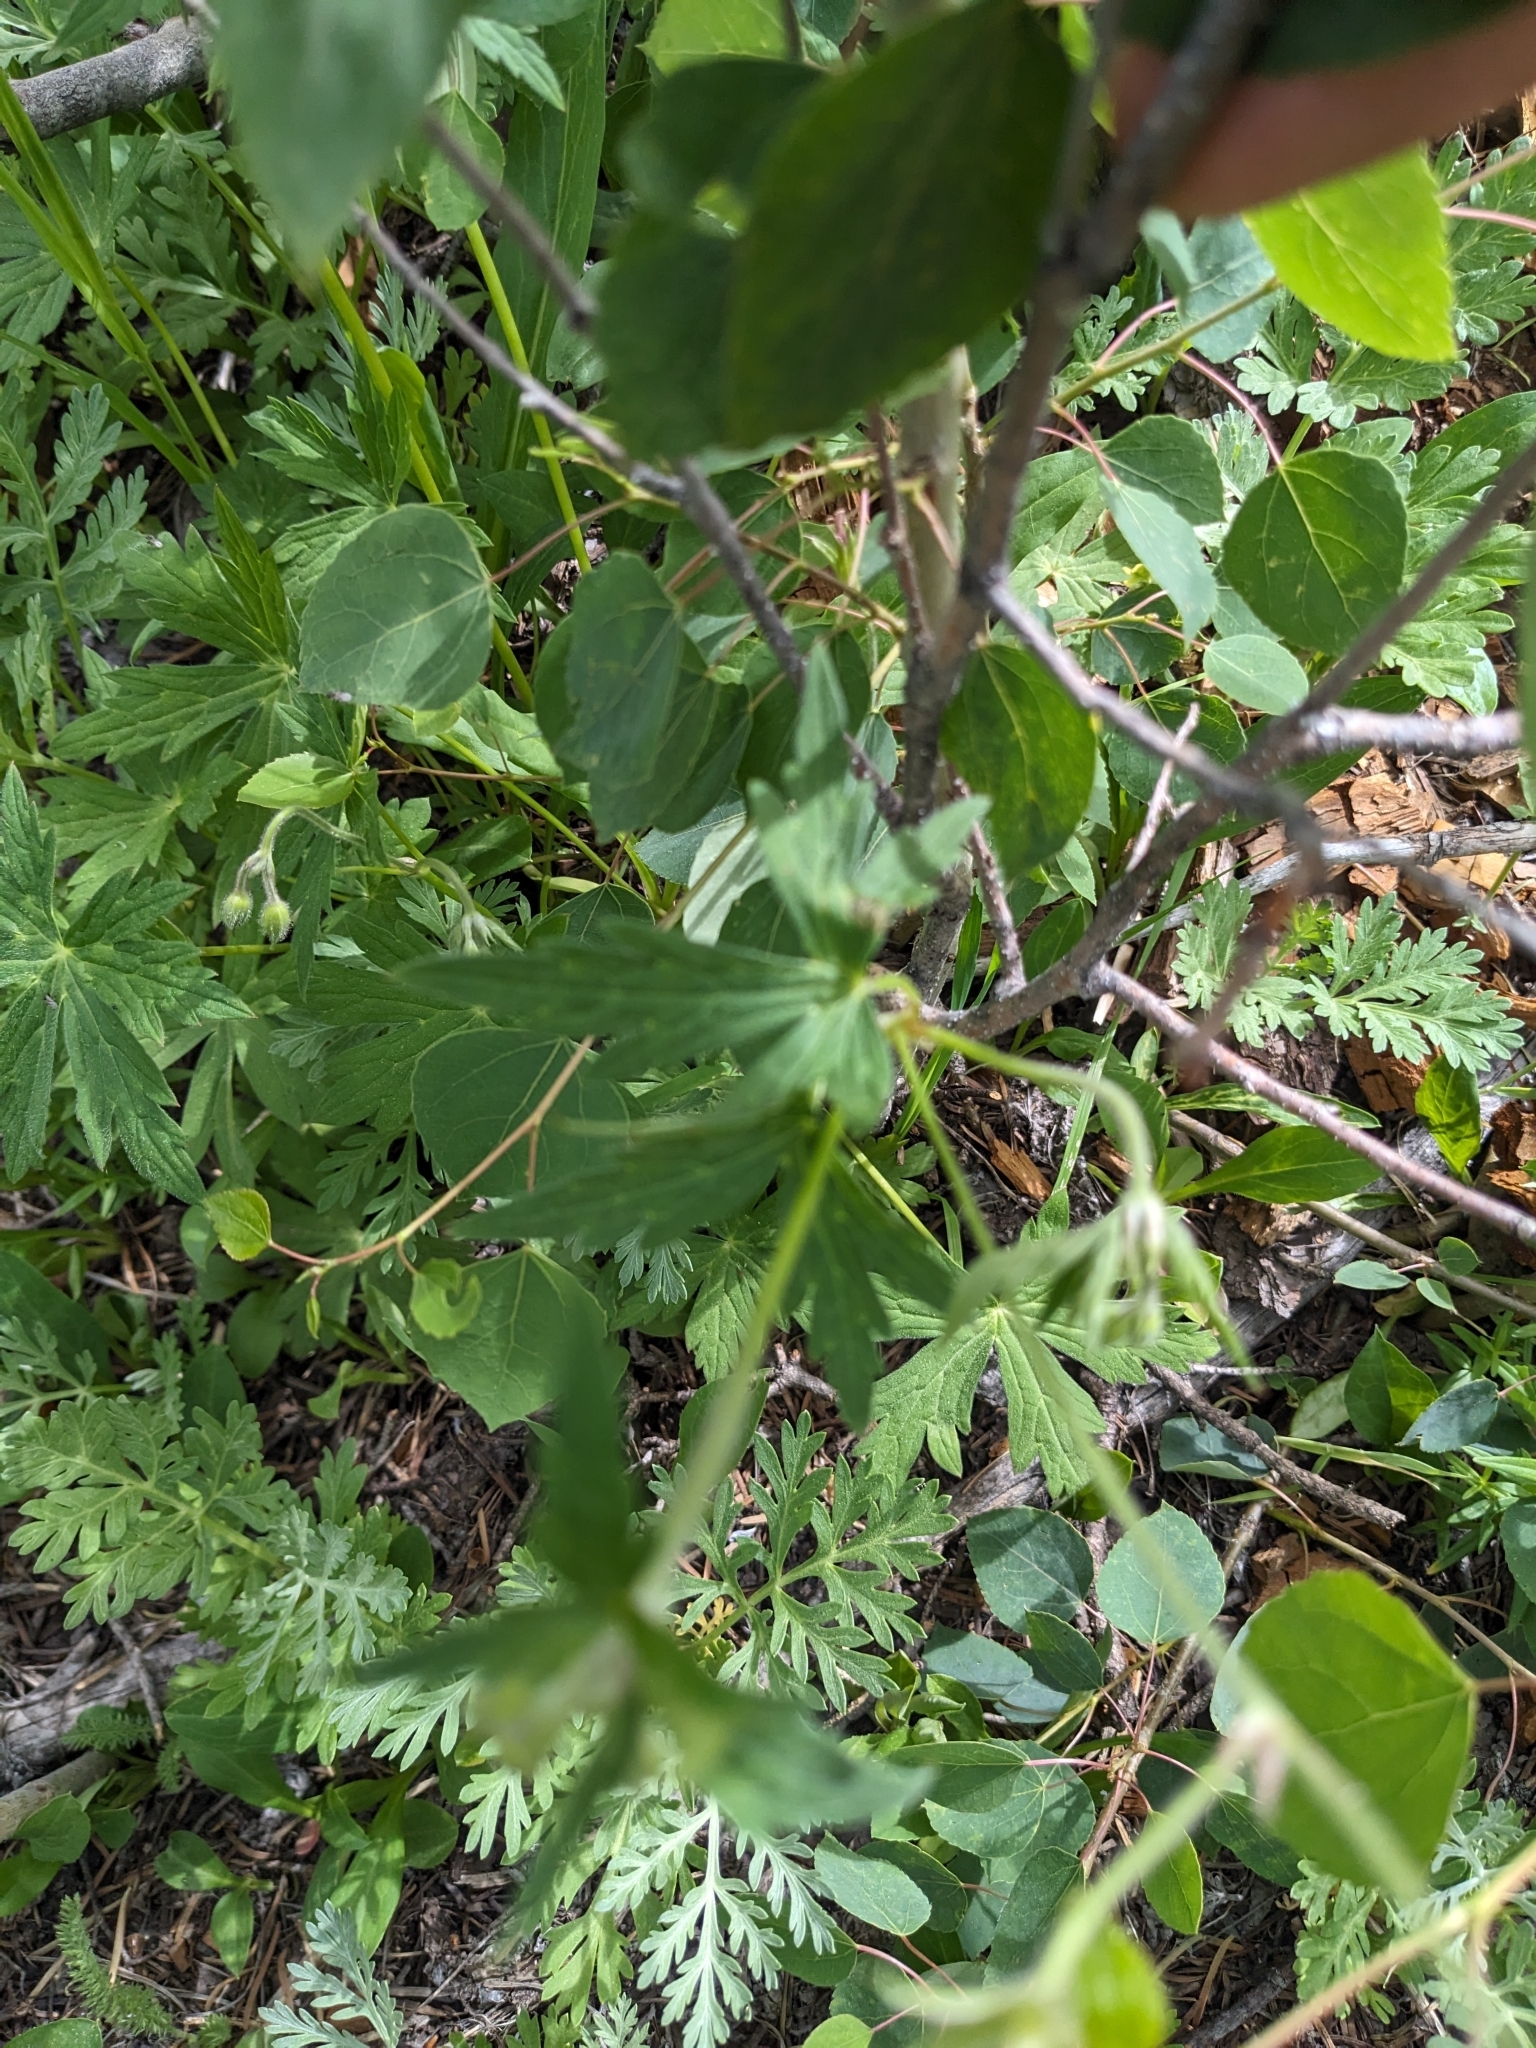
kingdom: Plantae
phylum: Tracheophyta
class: Magnoliopsida
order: Geraniales
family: Geraniaceae
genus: Geranium
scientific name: Geranium richardsonii
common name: Richardson's crane's-bill
